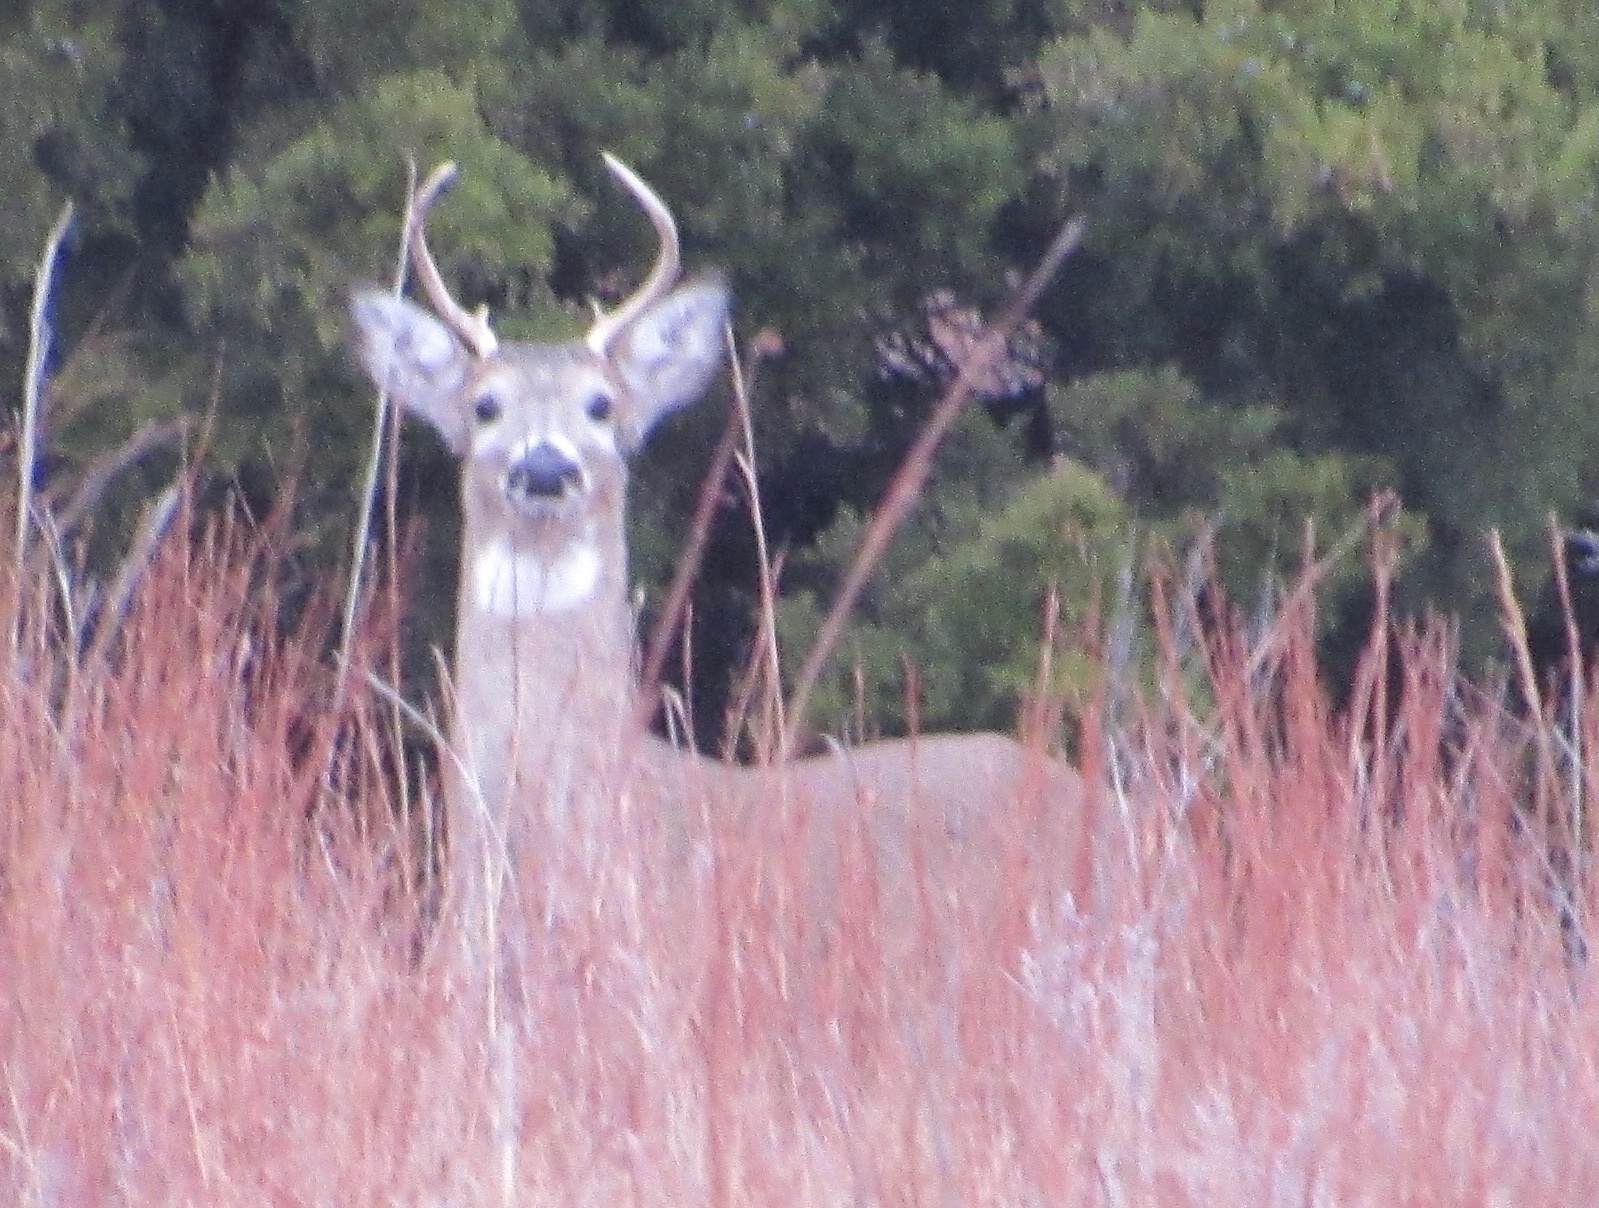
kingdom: Animalia
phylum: Chordata
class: Mammalia
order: Artiodactyla
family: Cervidae
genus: Odocoileus
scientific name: Odocoileus virginianus
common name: White-tailed deer
